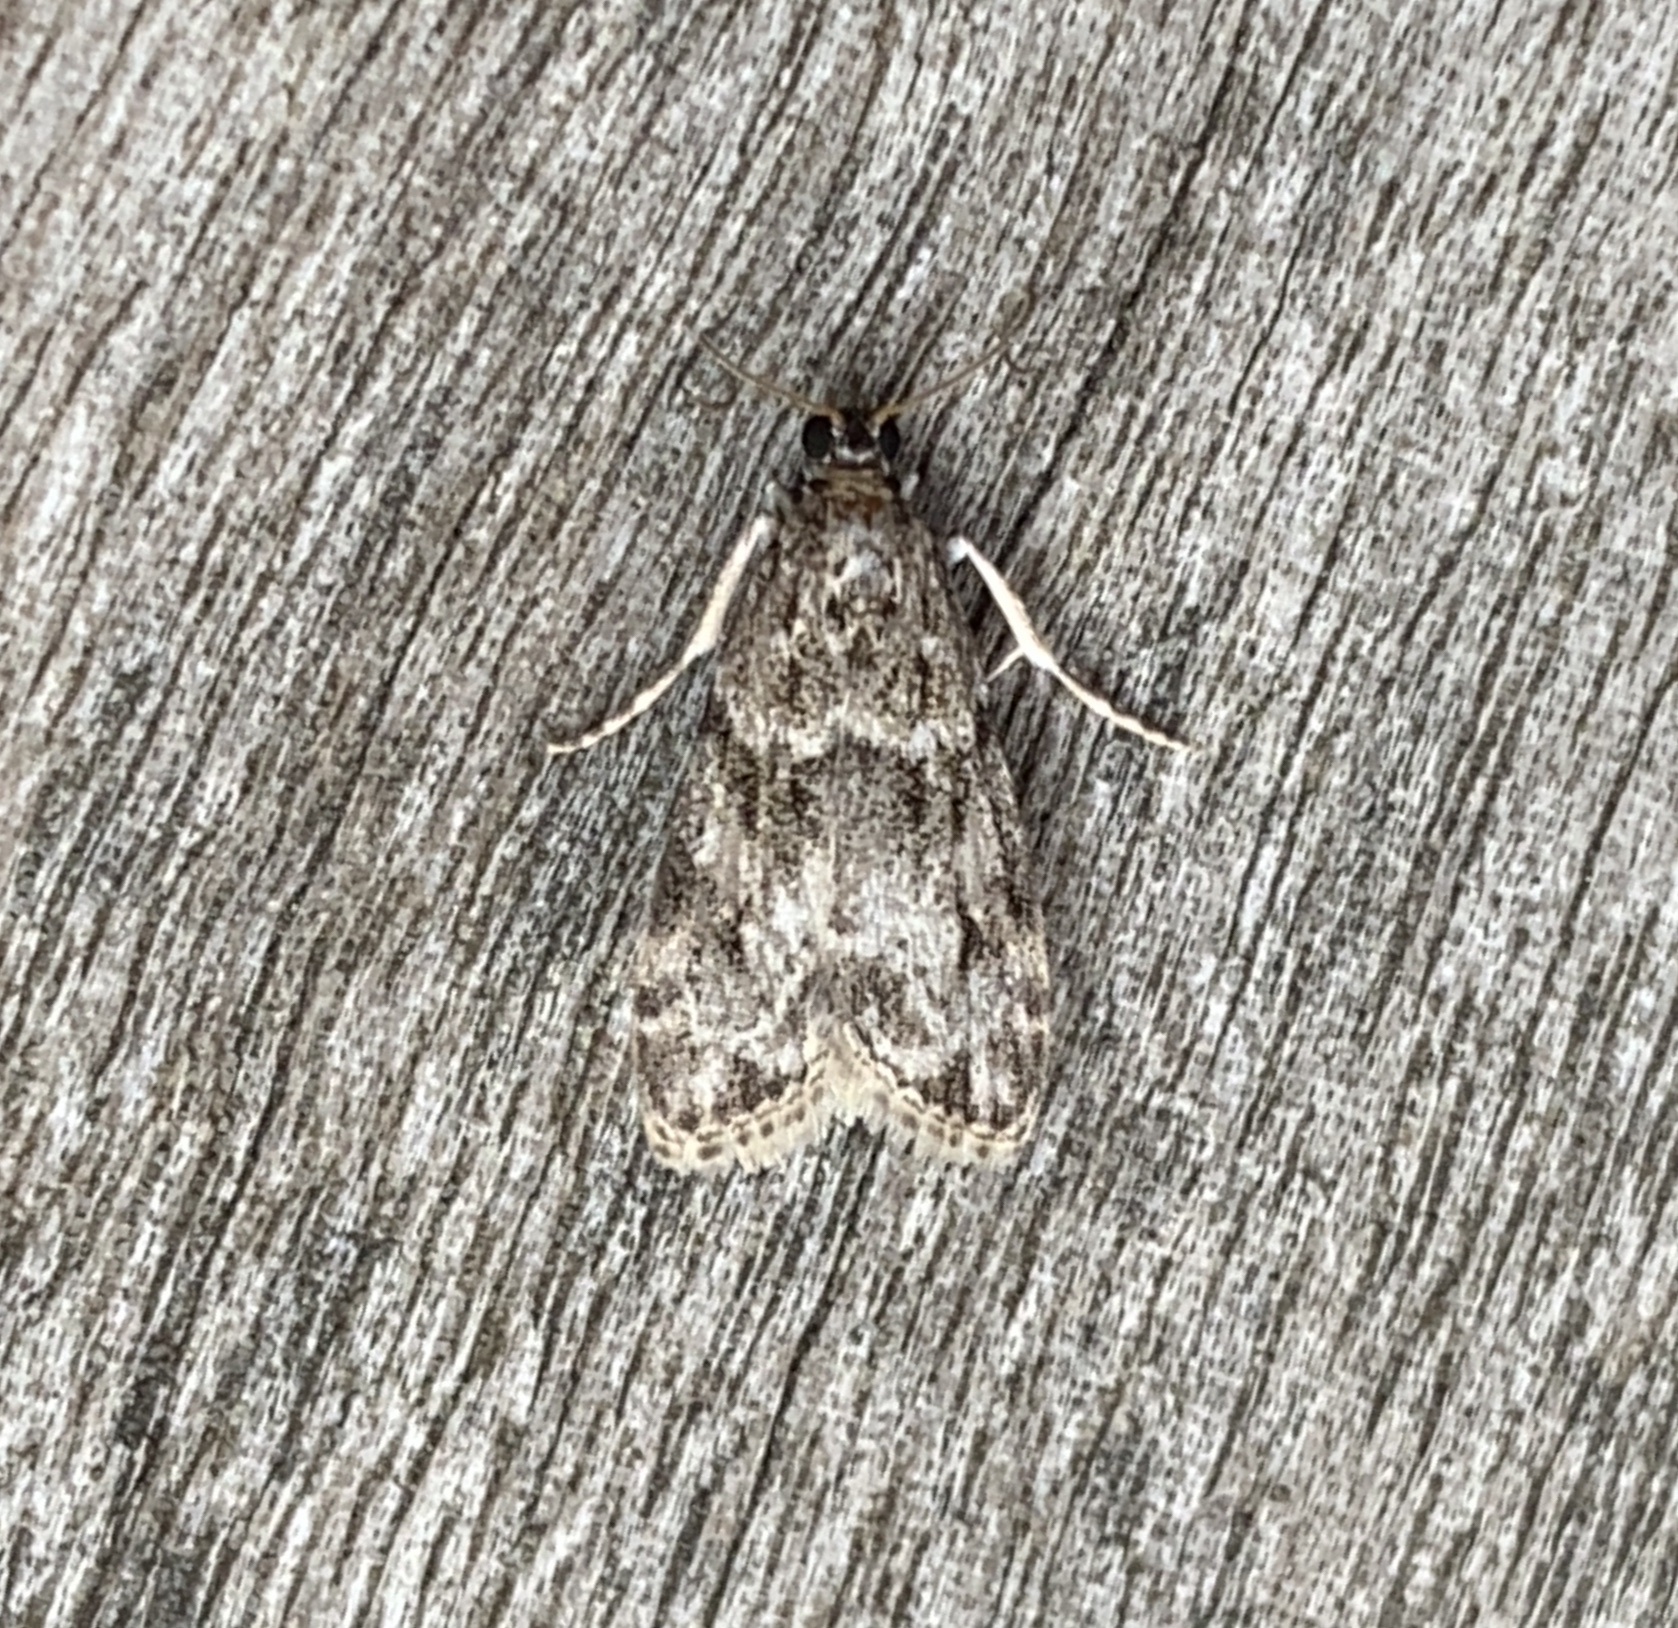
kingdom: Animalia
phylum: Arthropoda
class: Insecta
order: Lepidoptera
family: Crambidae
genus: Eudonia
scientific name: Eudonia heterosalis
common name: Mcdunnough's eudonia
